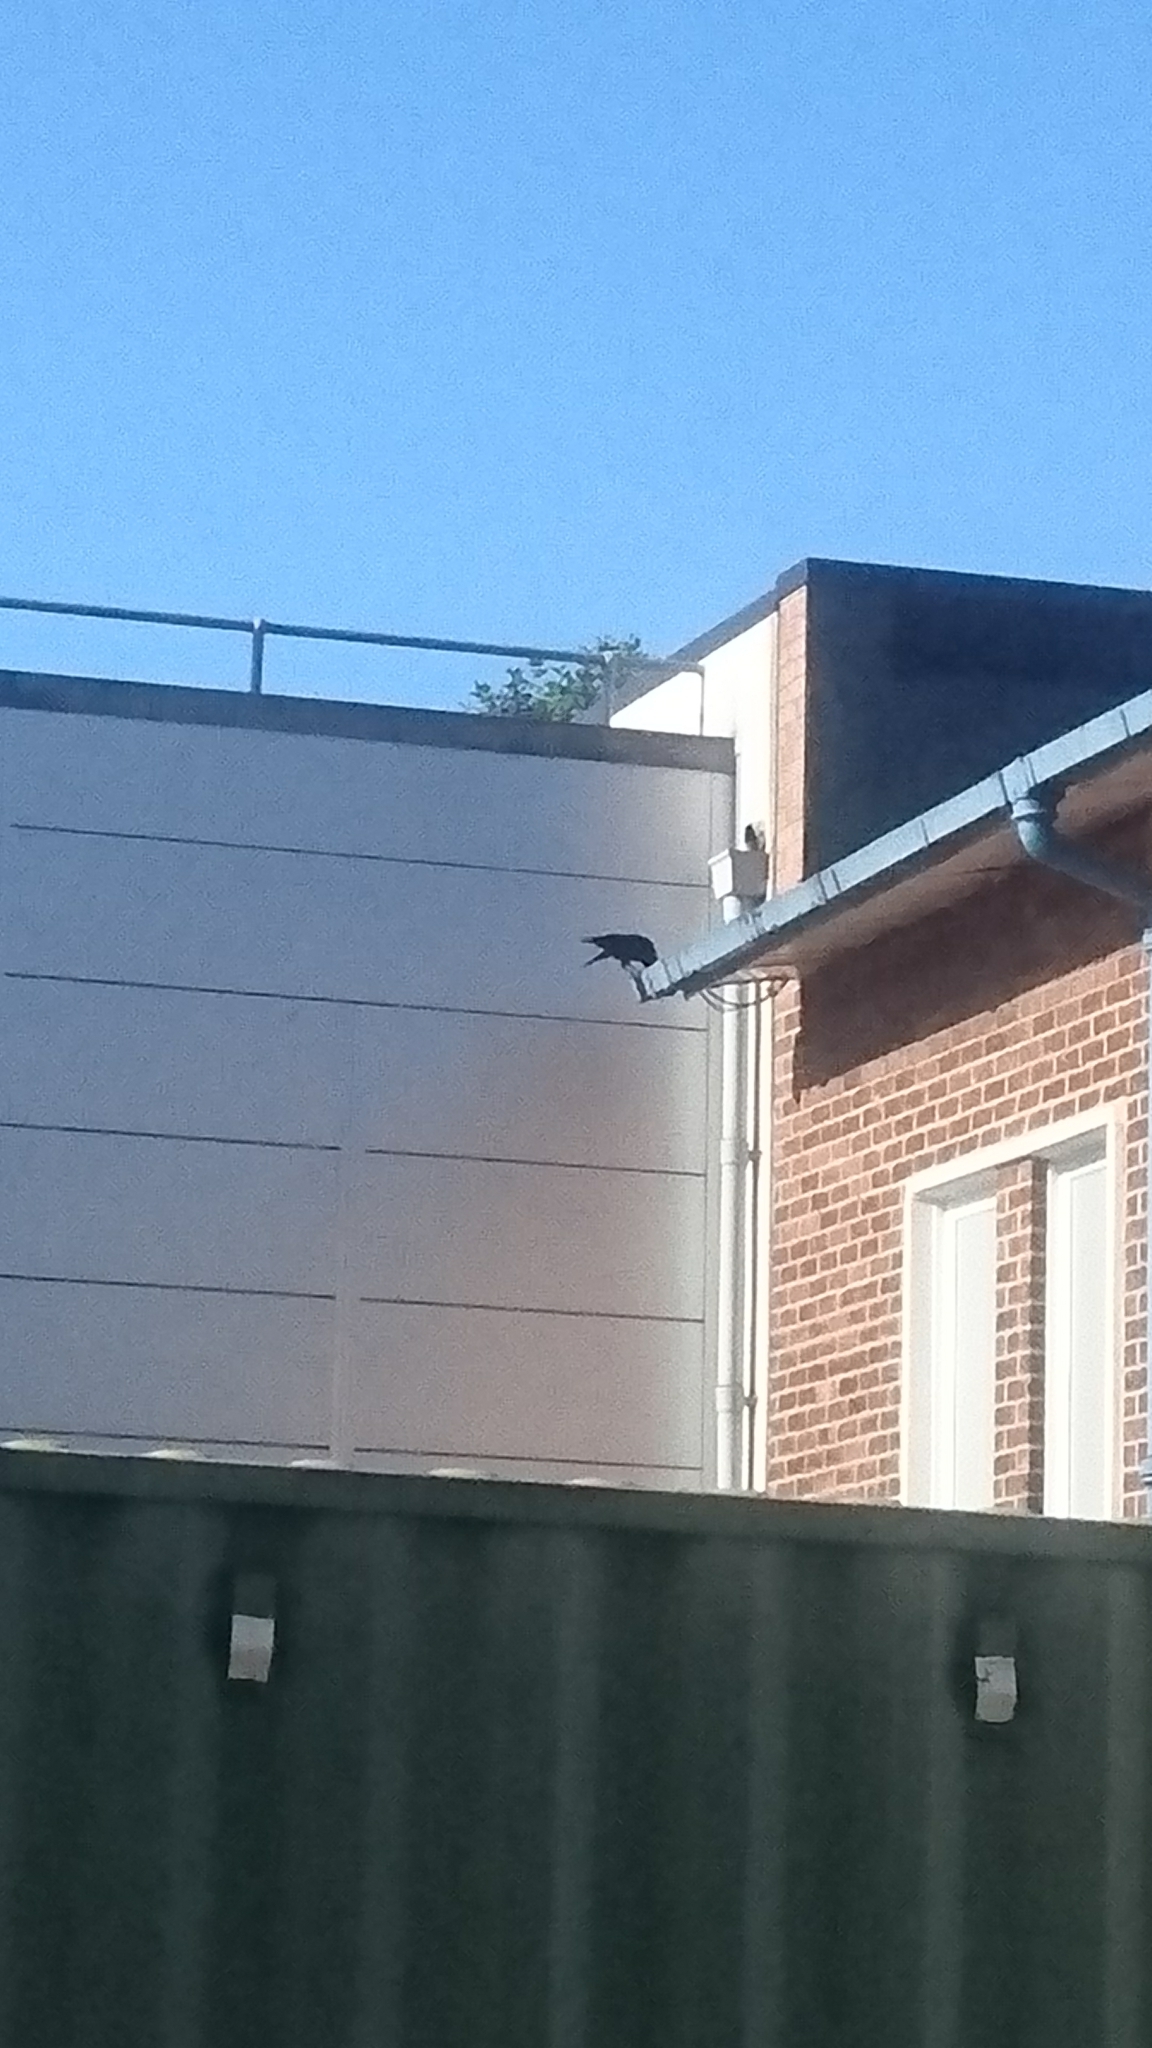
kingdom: Animalia
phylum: Chordata
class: Aves
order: Passeriformes
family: Corvidae
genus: Coloeus
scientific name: Coloeus monedula
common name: Western jackdaw
